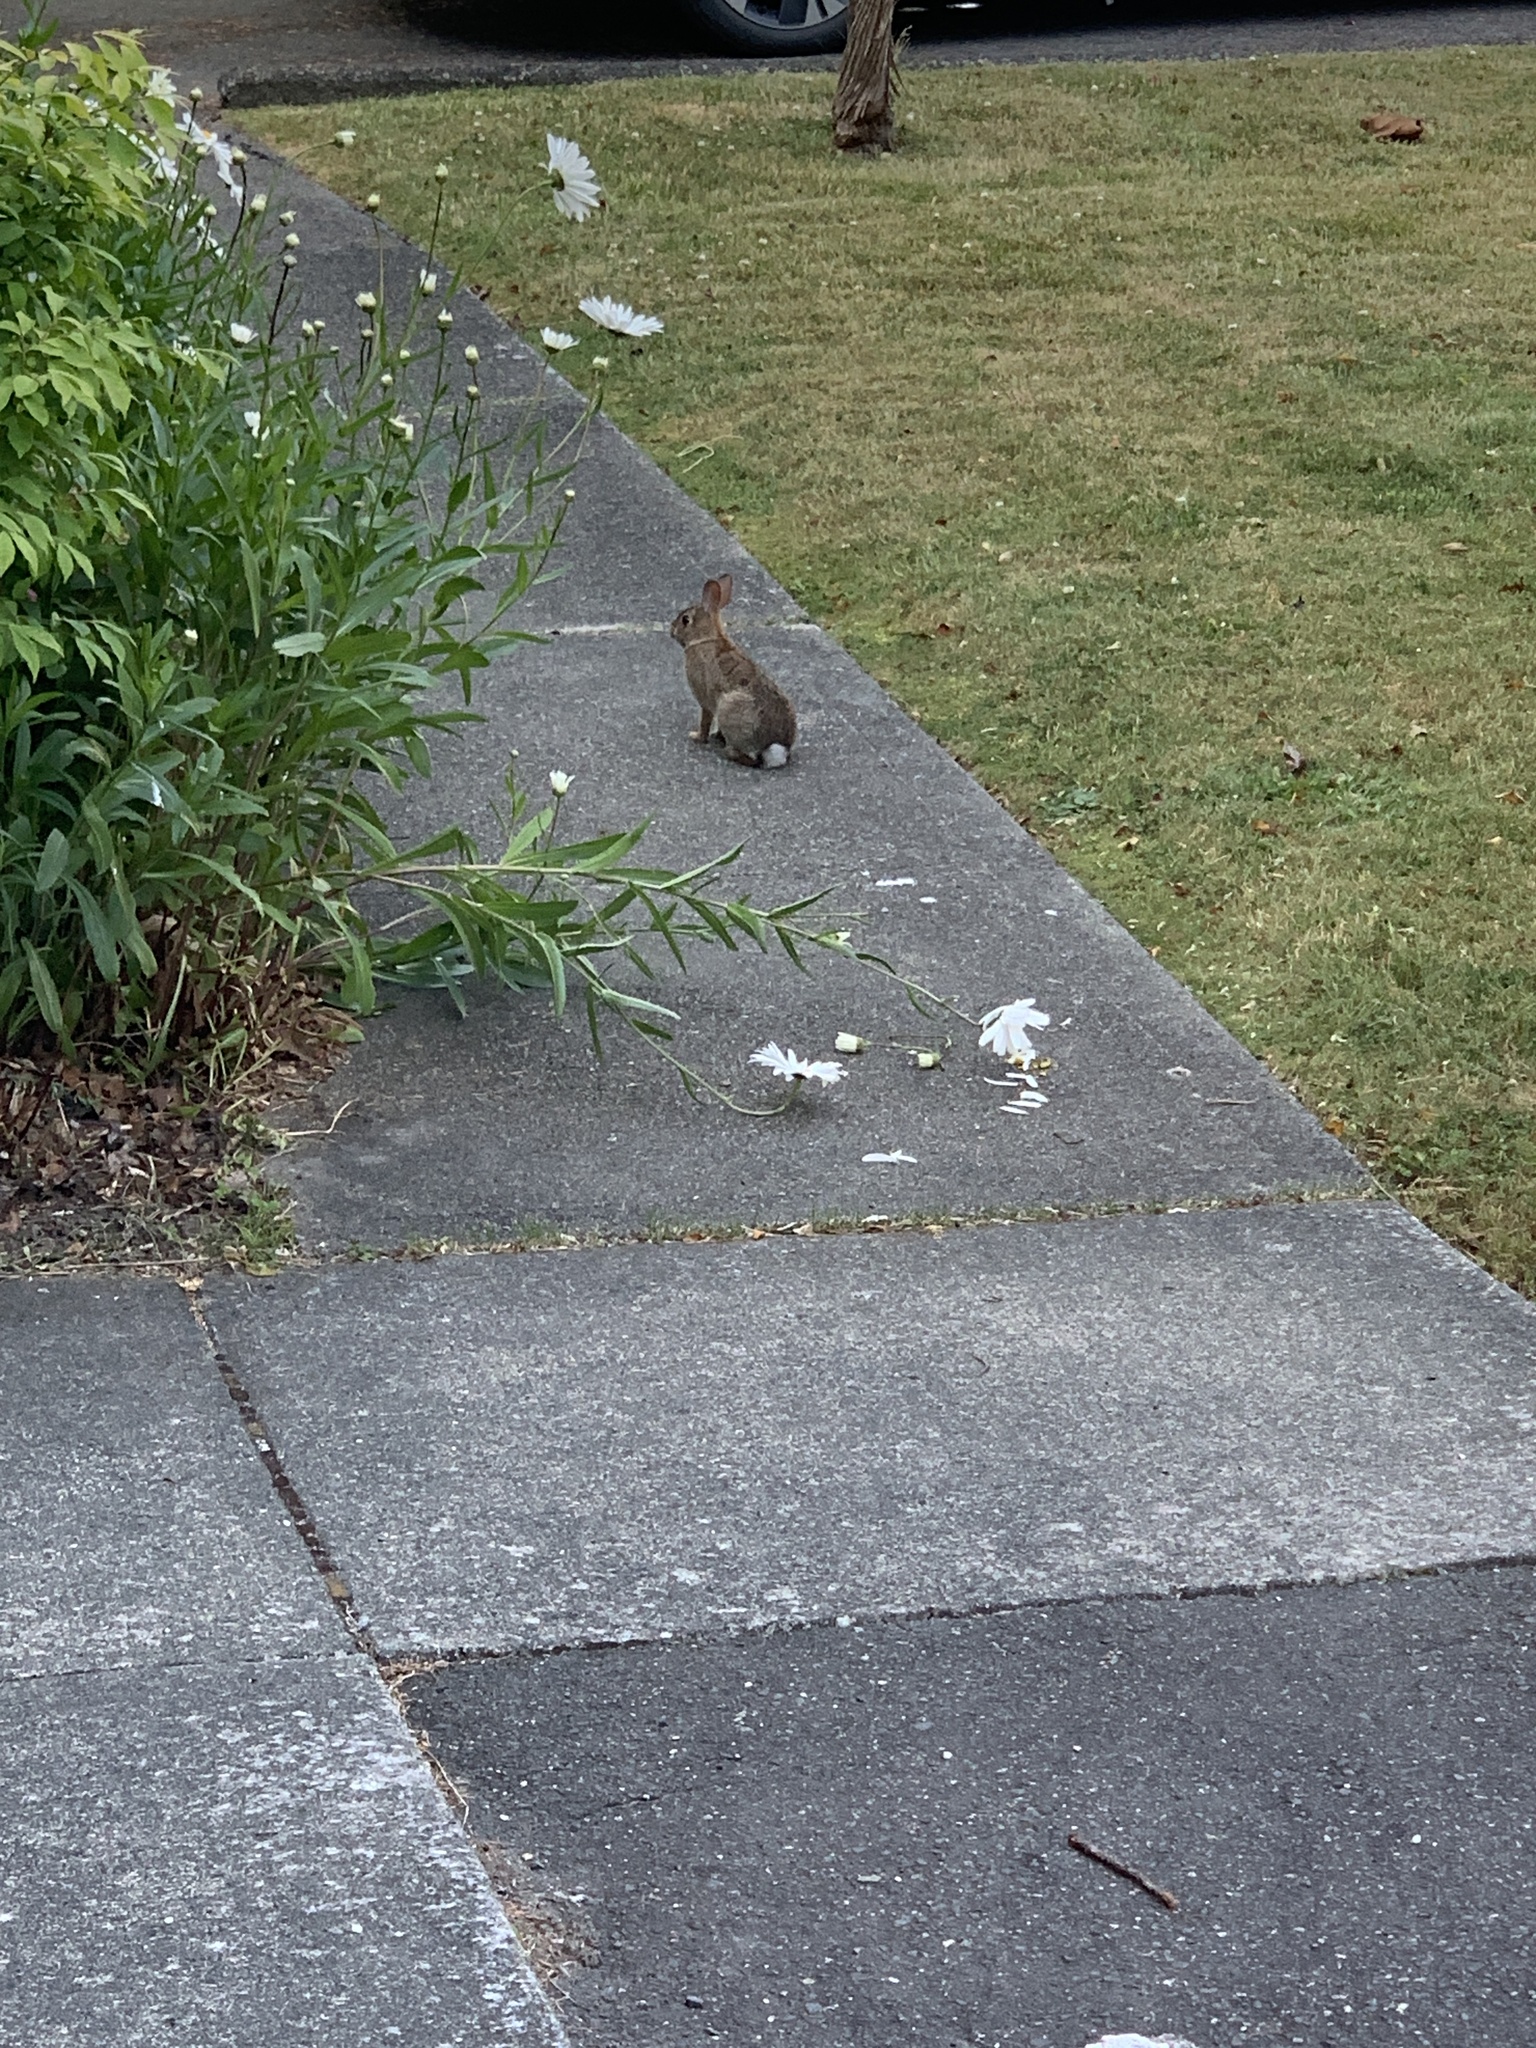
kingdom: Animalia
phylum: Chordata
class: Mammalia
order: Lagomorpha
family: Leporidae
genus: Sylvilagus
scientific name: Sylvilagus floridanus
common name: Eastern cottontail
